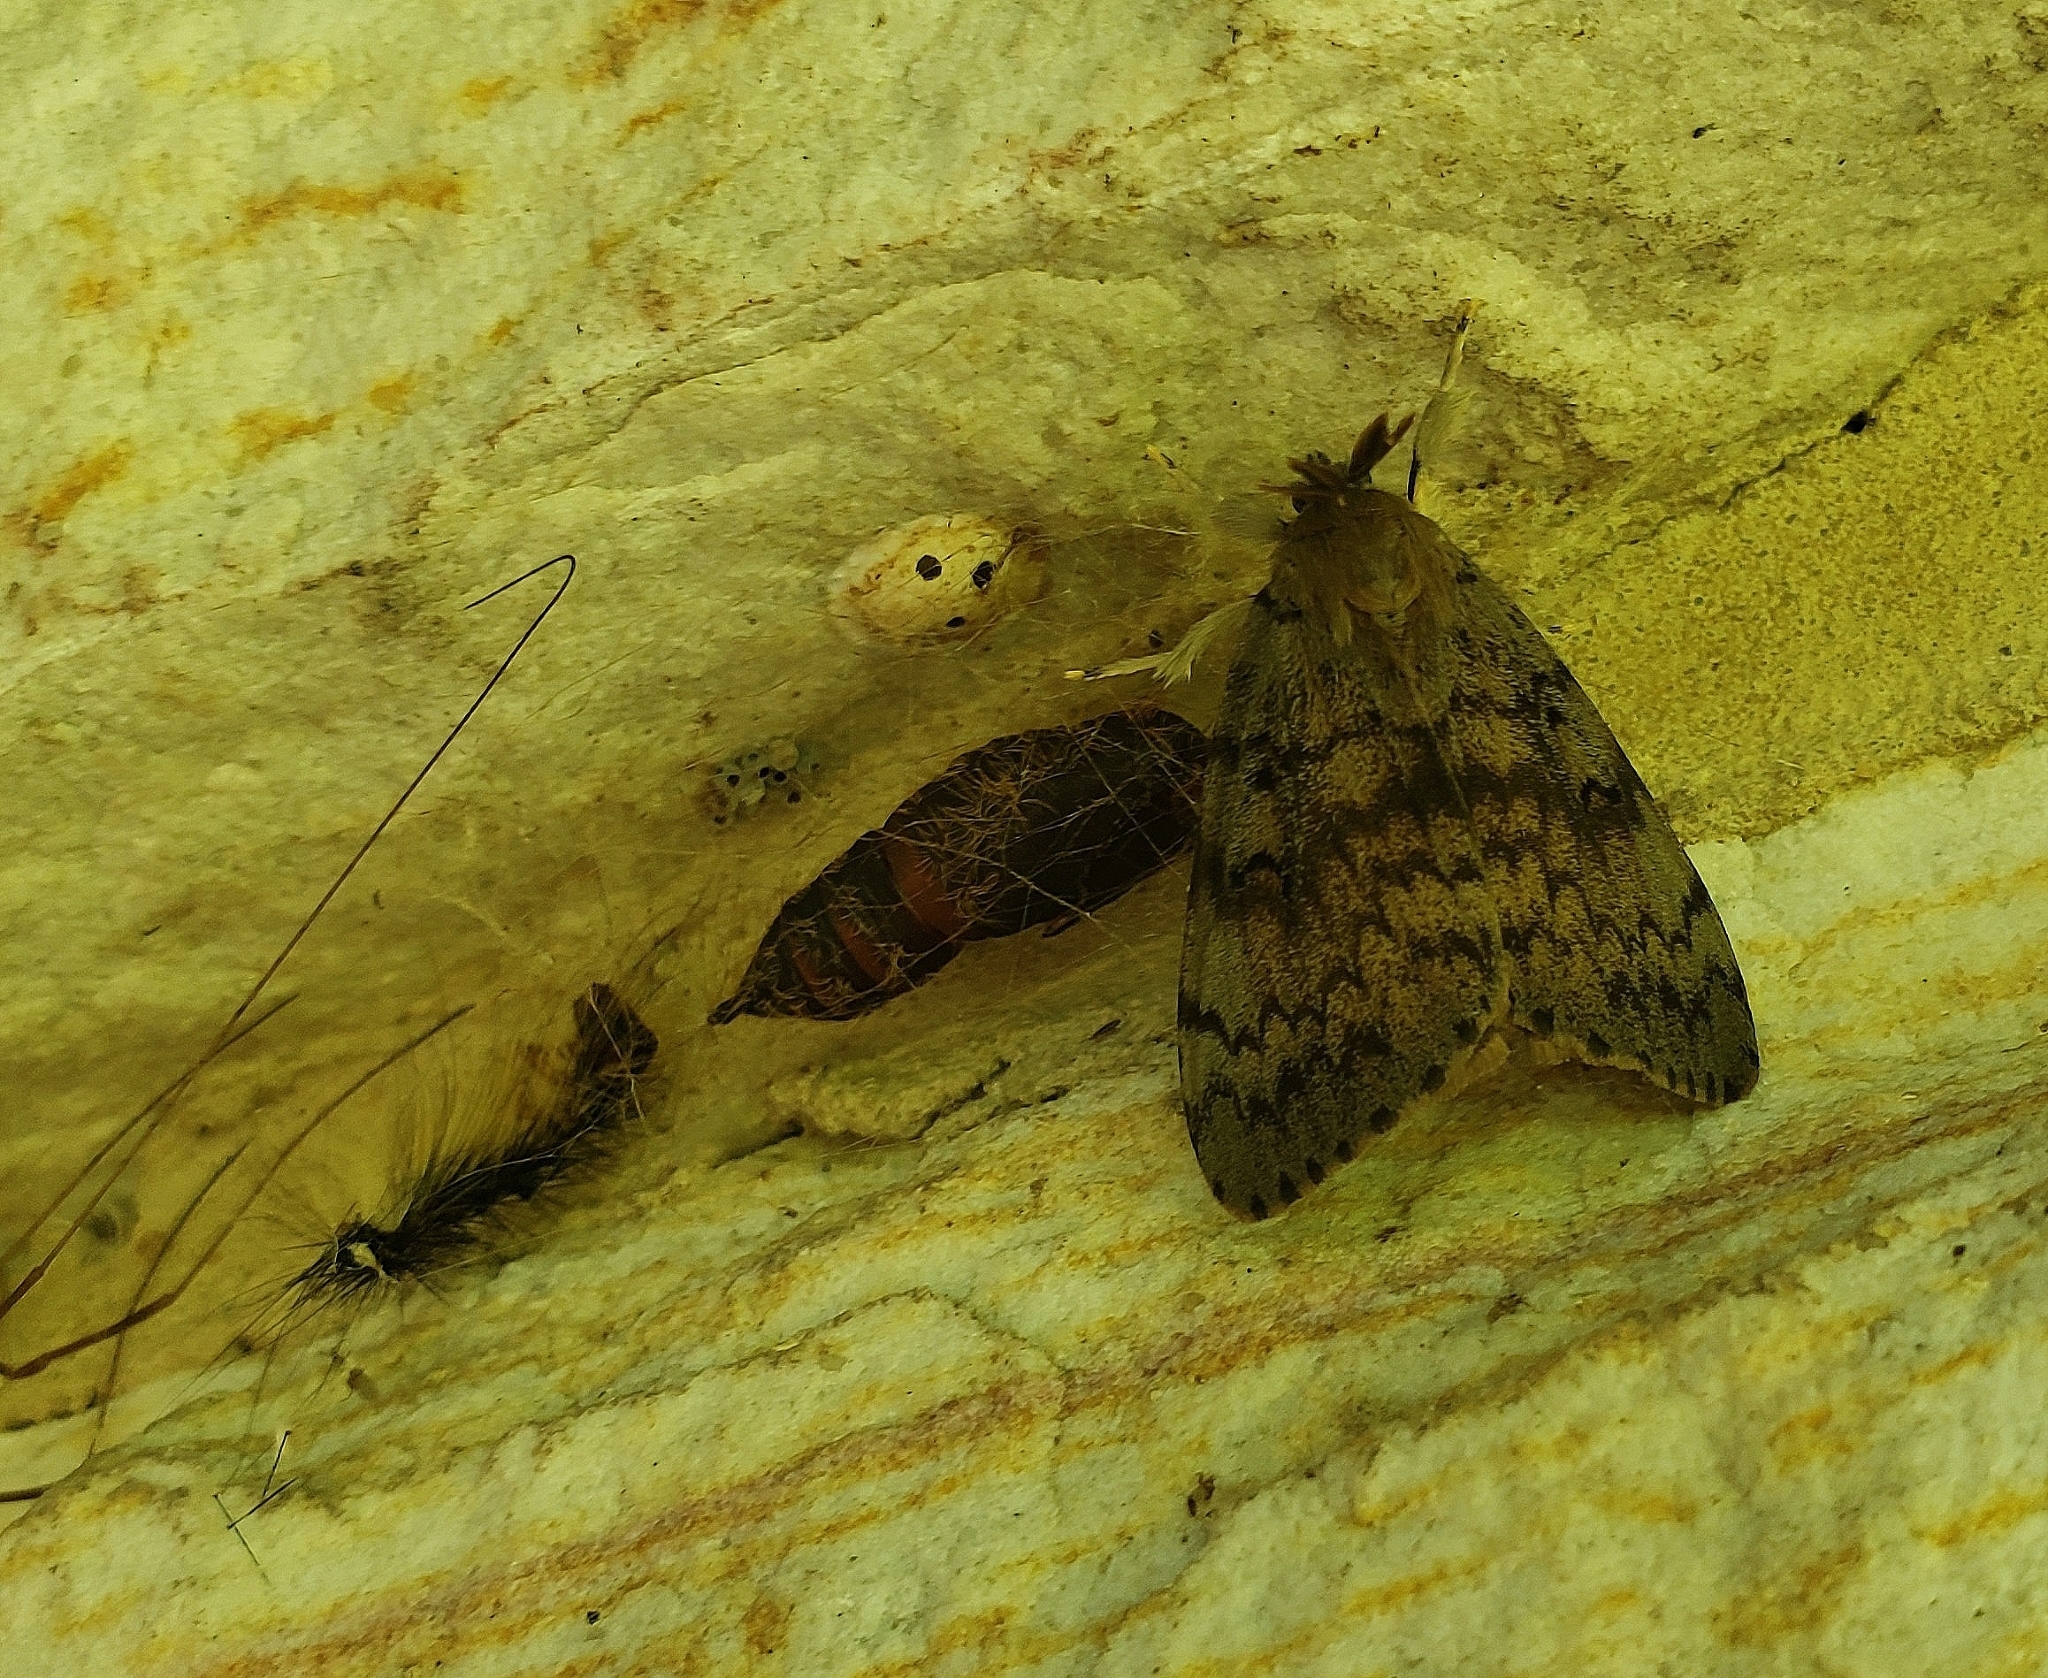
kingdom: Animalia
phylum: Arthropoda
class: Insecta
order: Lepidoptera
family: Erebidae
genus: Lymantria
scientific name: Lymantria dispar
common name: Gypsy moth
